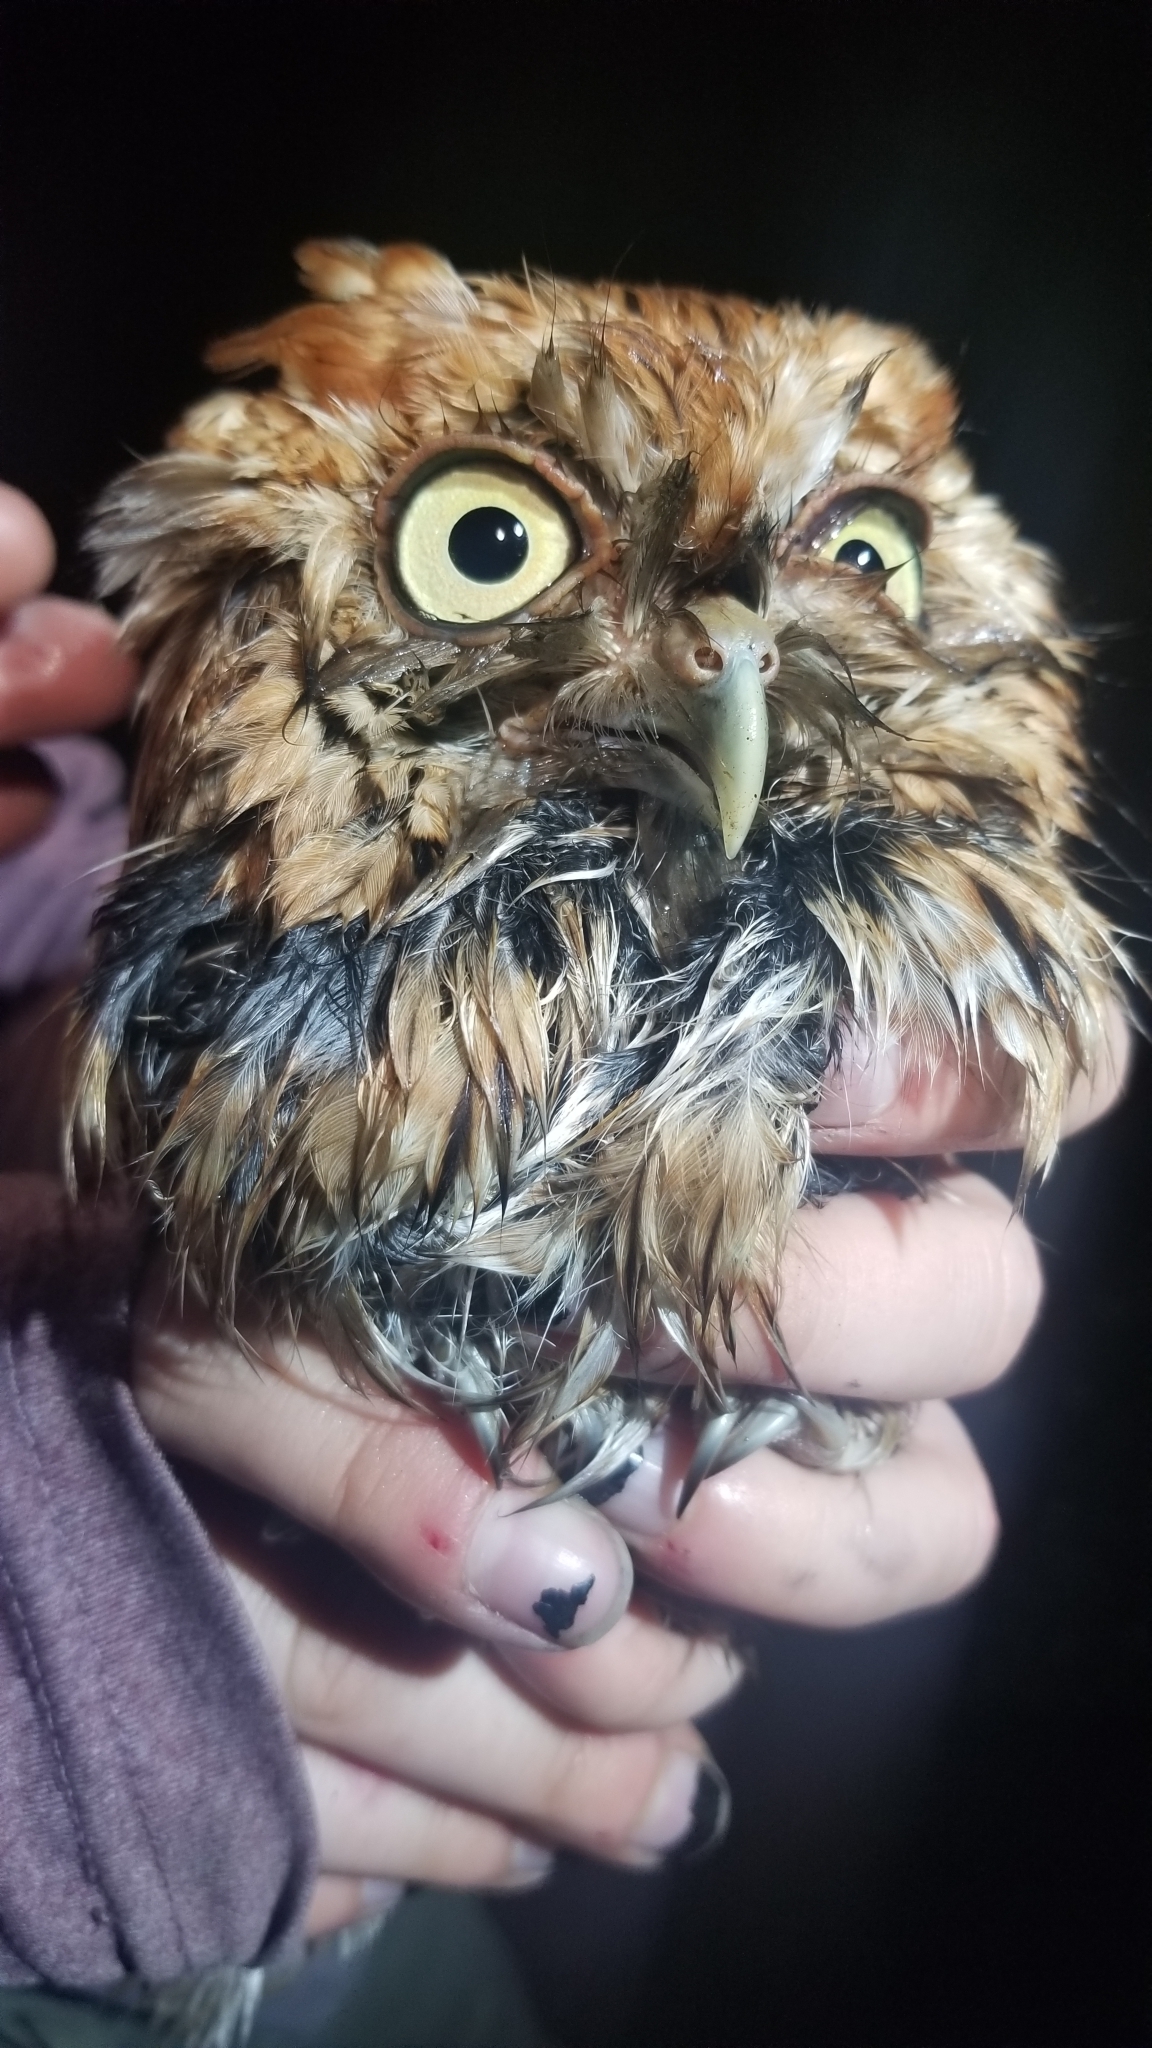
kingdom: Animalia
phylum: Chordata
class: Aves
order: Strigiformes
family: Strigidae
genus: Megascops
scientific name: Megascops asio
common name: Eastern screech-owl
